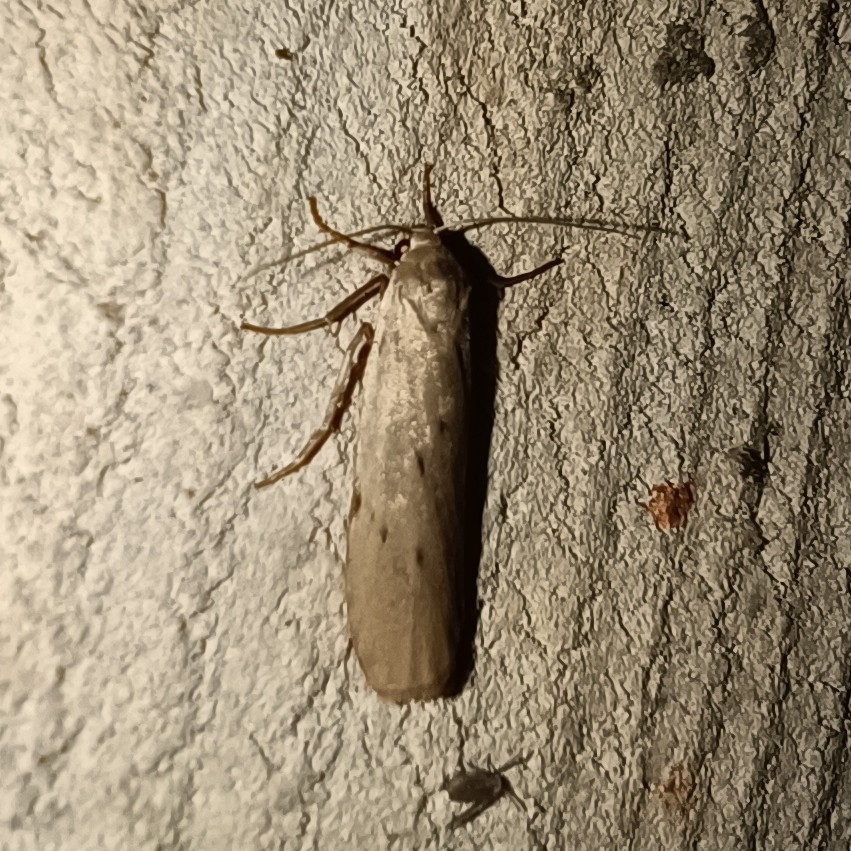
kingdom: Animalia
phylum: Arthropoda
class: Insecta
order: Lepidoptera
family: Erebidae
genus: Pelosia
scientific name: Pelosia muscerda
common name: Dotted footman
